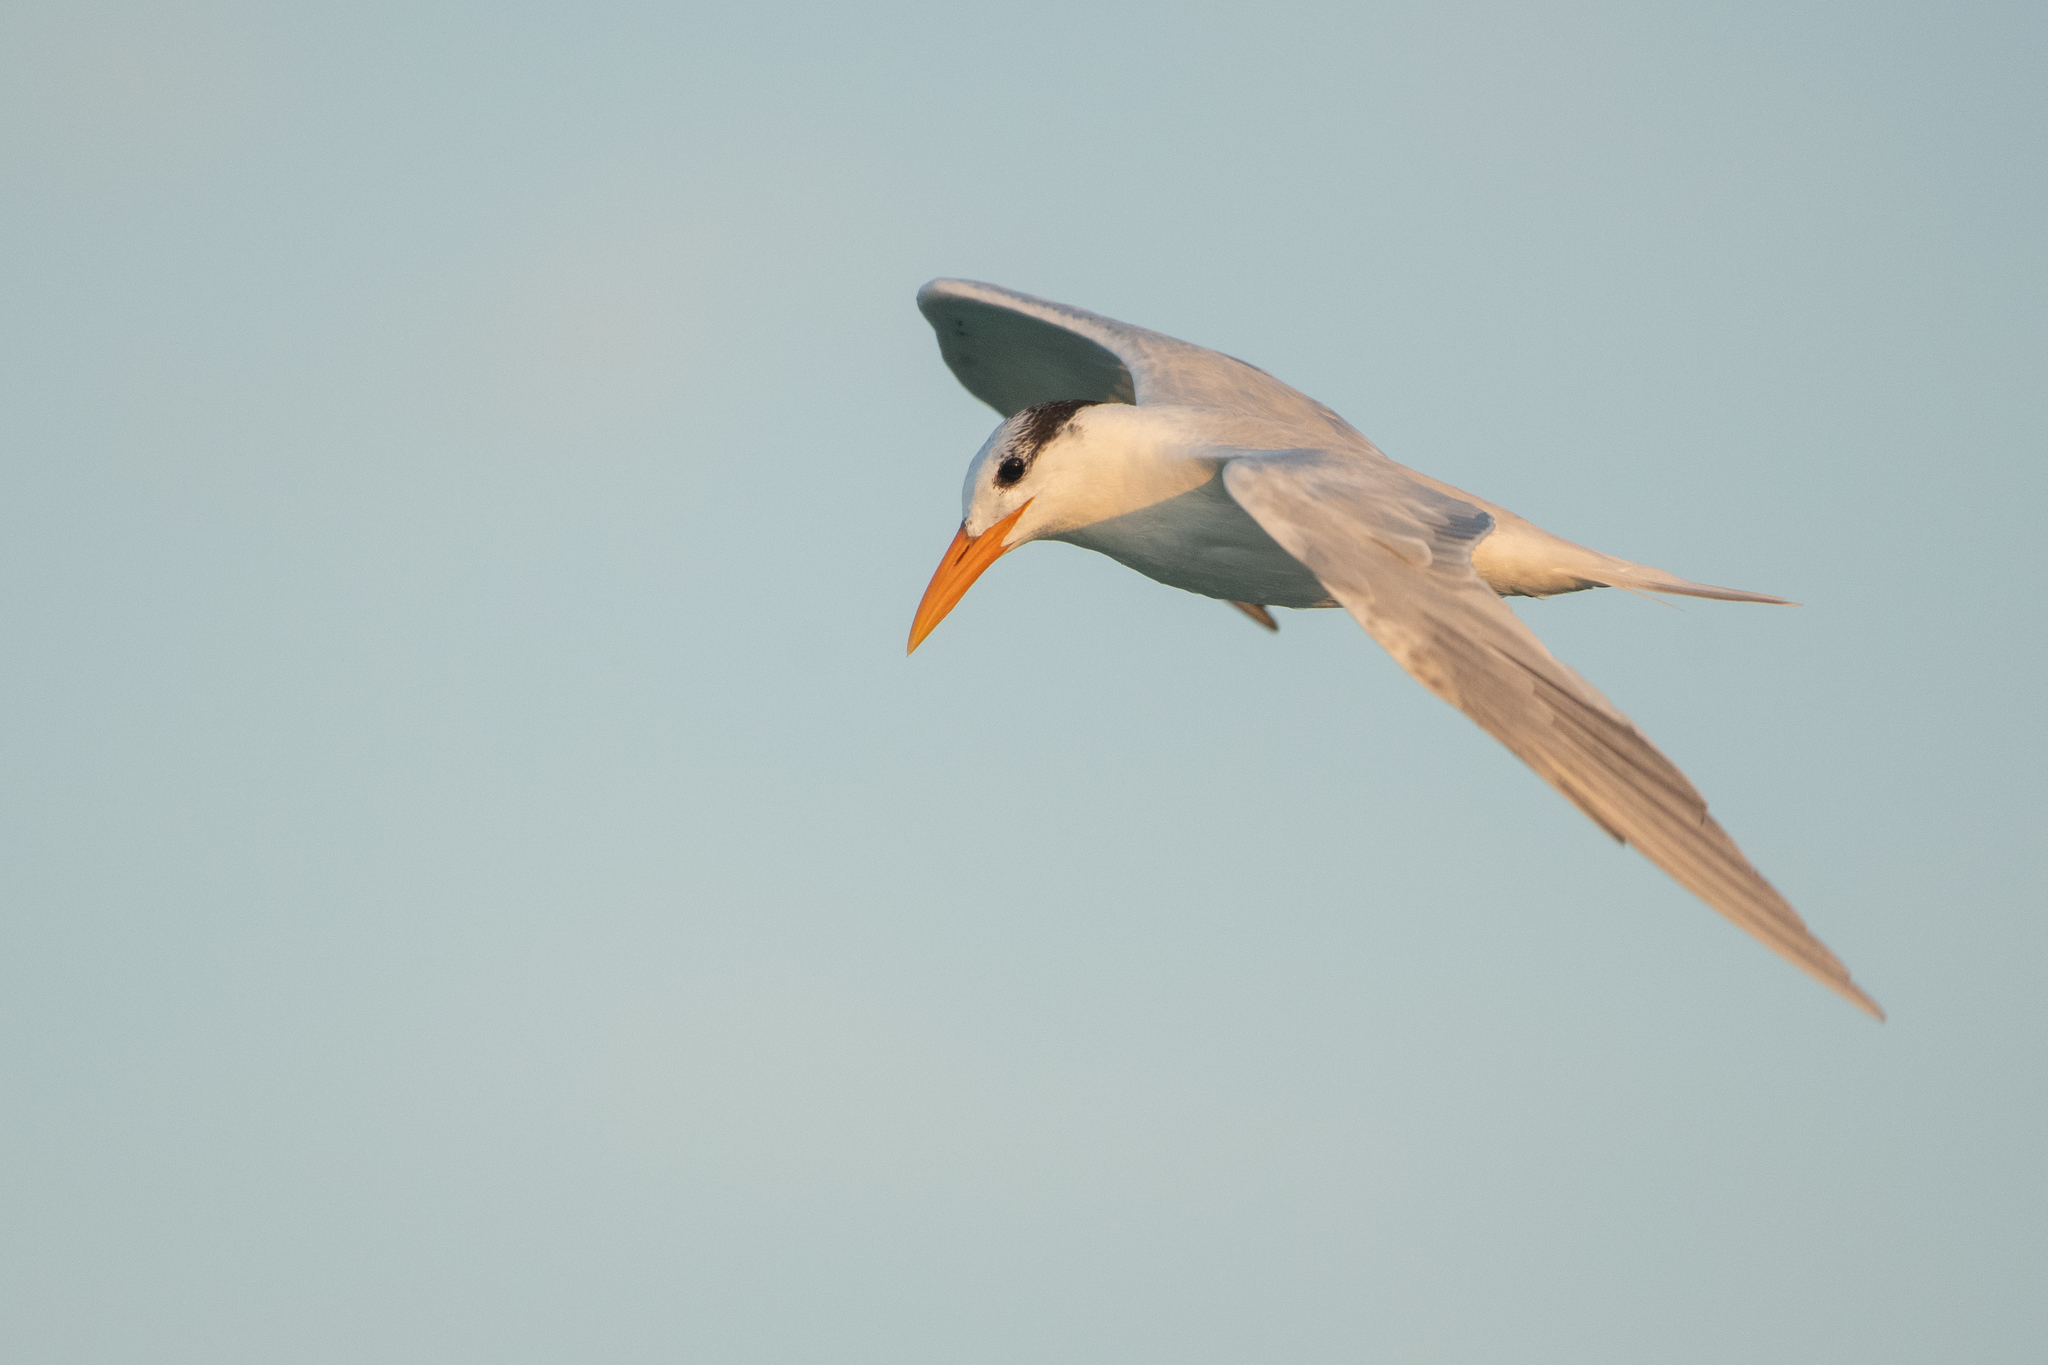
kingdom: Animalia
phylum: Chordata
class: Aves
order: Charadriiformes
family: Laridae
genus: Thalasseus
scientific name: Thalasseus maximus
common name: Royal tern
